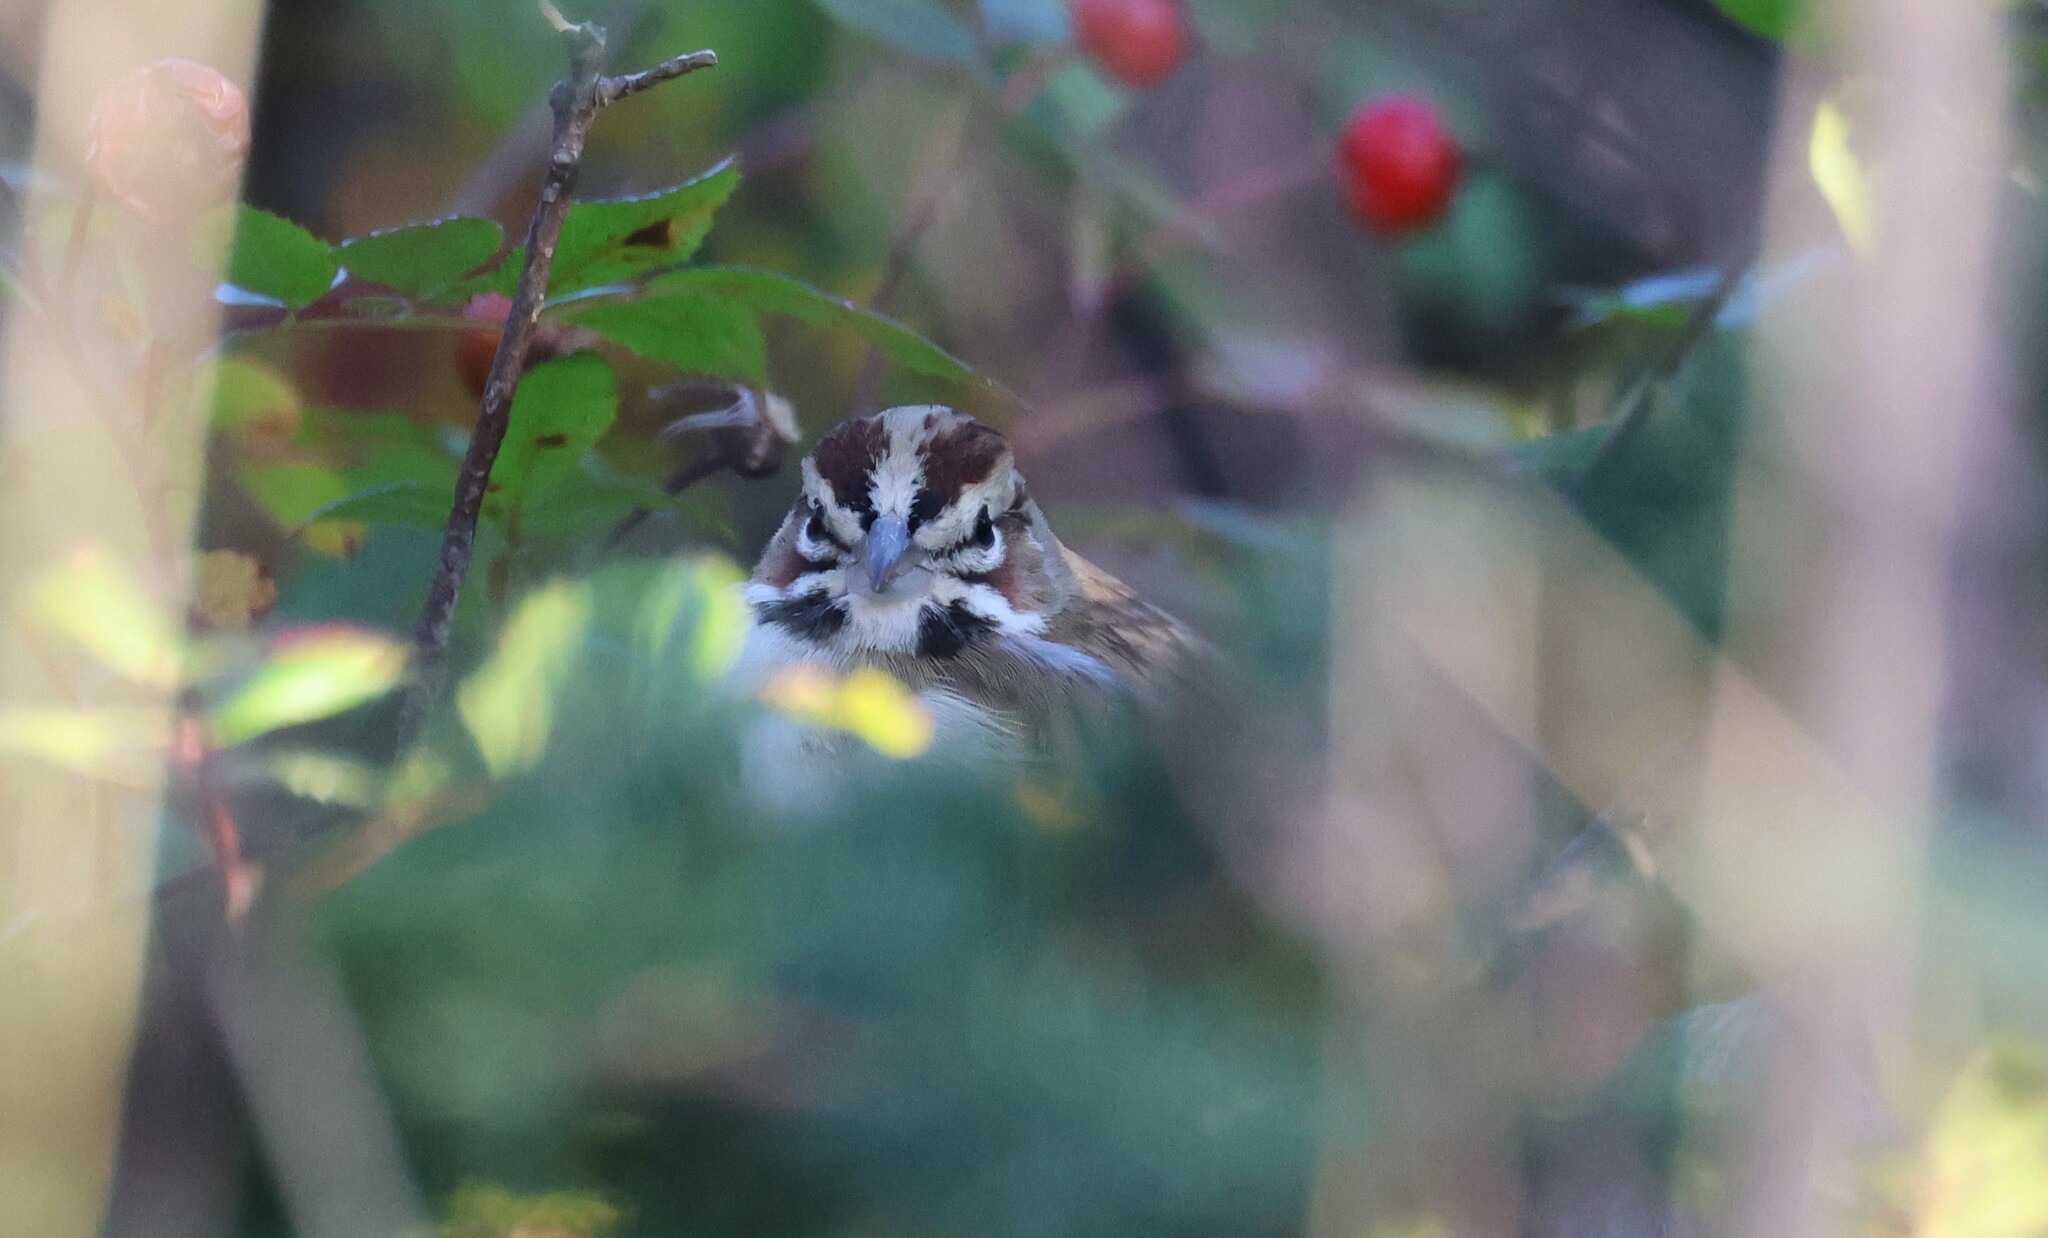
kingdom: Animalia
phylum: Chordata
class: Aves
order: Passeriformes
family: Passerellidae
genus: Chondestes
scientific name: Chondestes grammacus
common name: Lark sparrow
